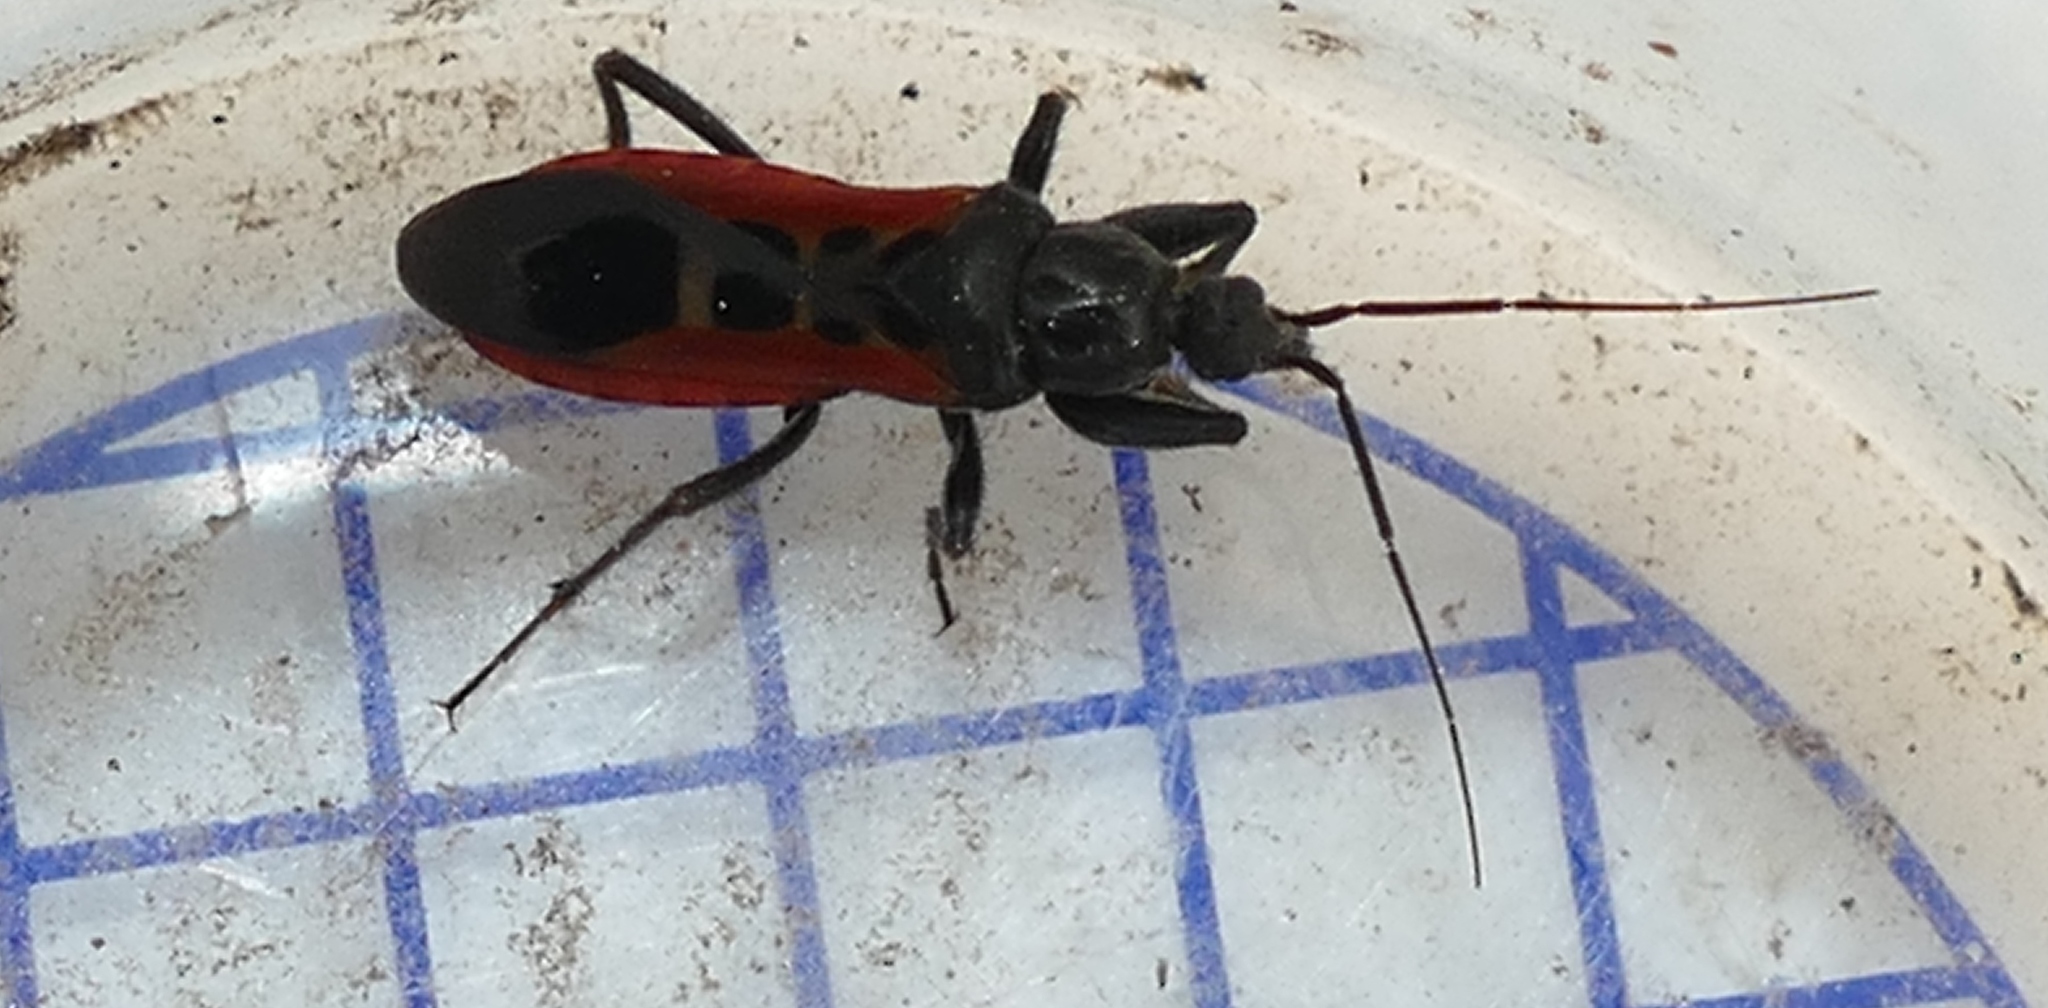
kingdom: Animalia
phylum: Arthropoda
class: Insecta
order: Hemiptera
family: Reduviidae
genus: Peirates
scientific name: Peirates stridulus
